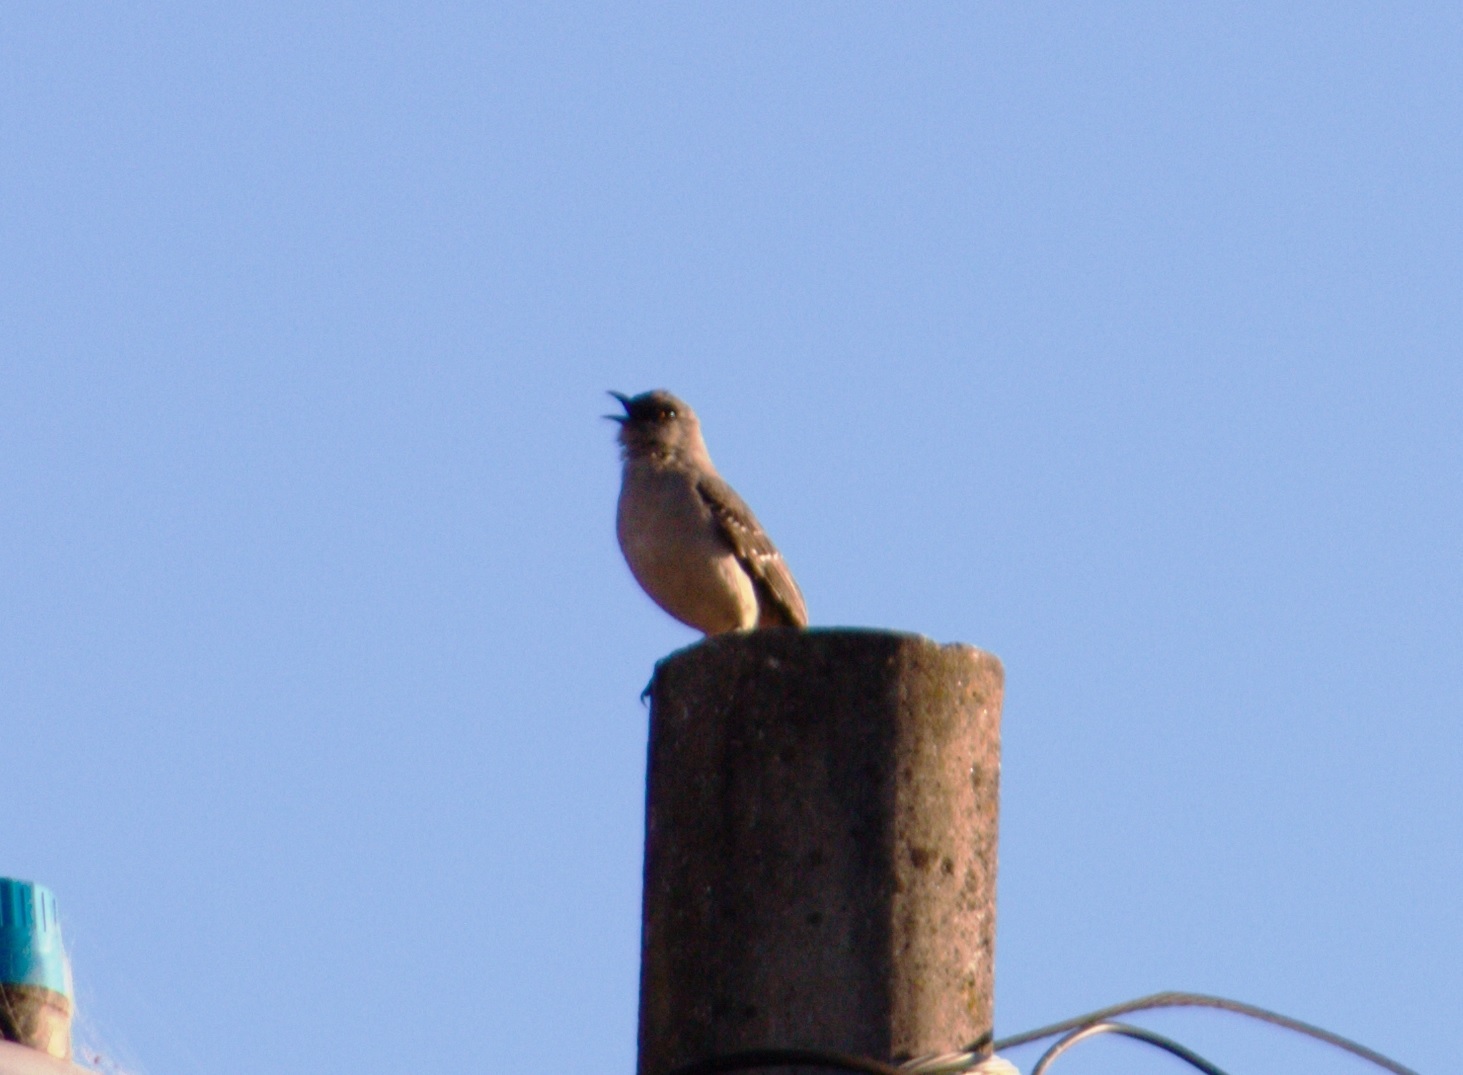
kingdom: Animalia
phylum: Chordata
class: Aves
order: Passeriformes
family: Mimidae
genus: Mimus
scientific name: Mimus gilvus
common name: Tropical mockingbird
